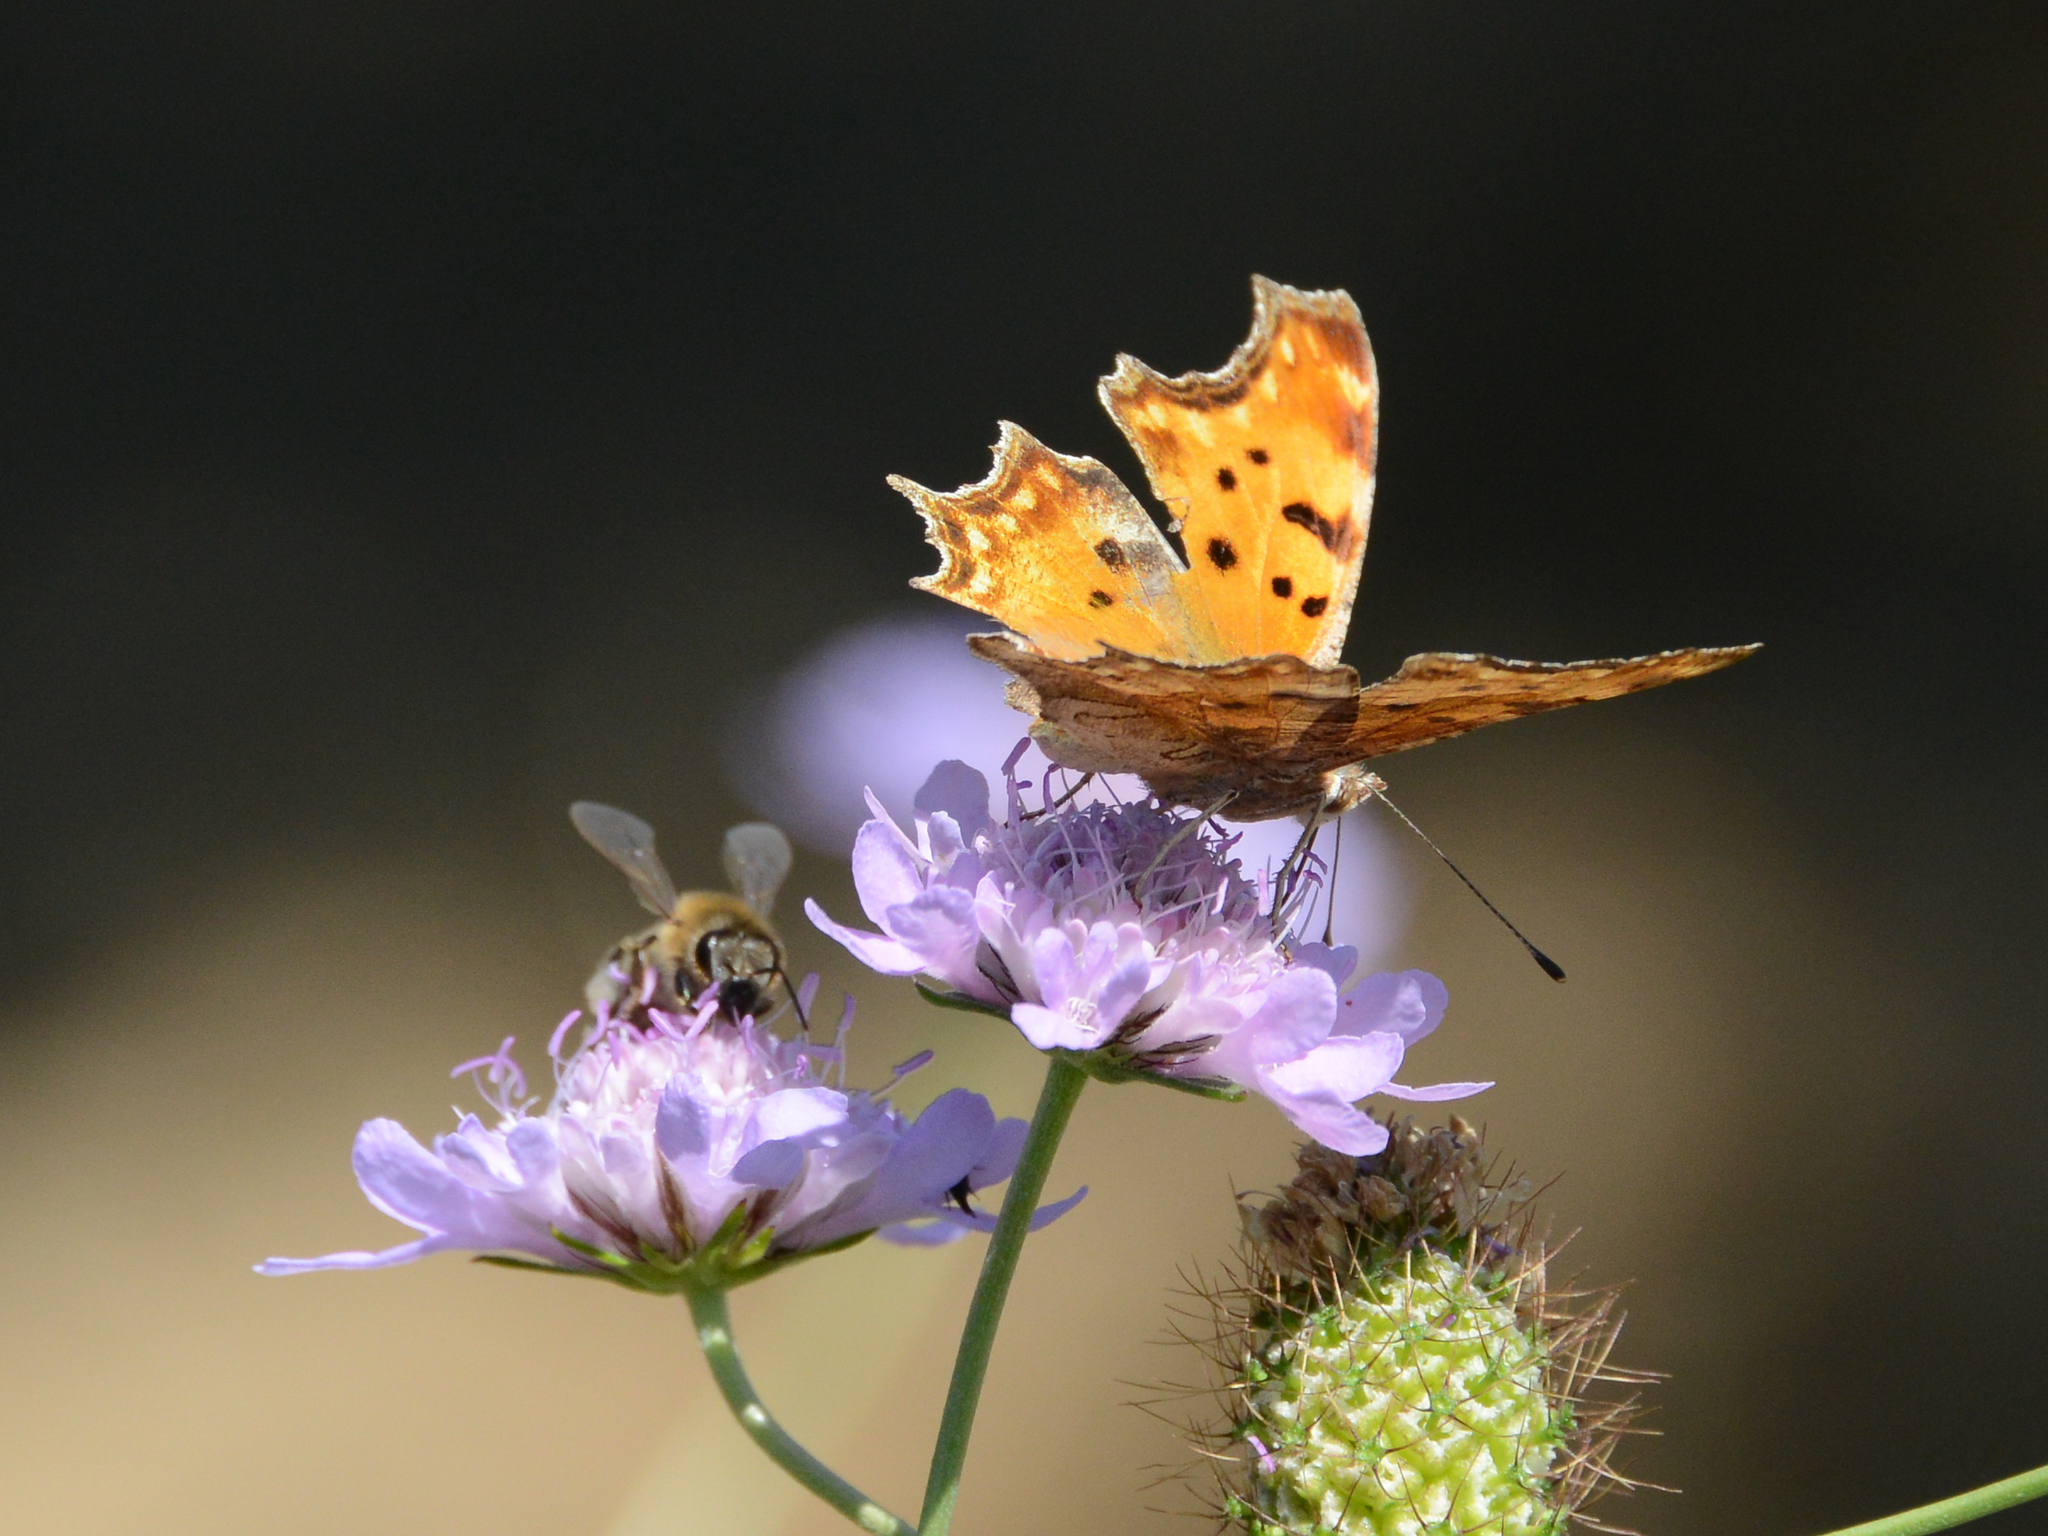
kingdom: Animalia
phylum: Arthropoda
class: Insecta
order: Lepidoptera
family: Nymphalidae
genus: Polygonia
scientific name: Polygonia egea
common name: Southern comma
